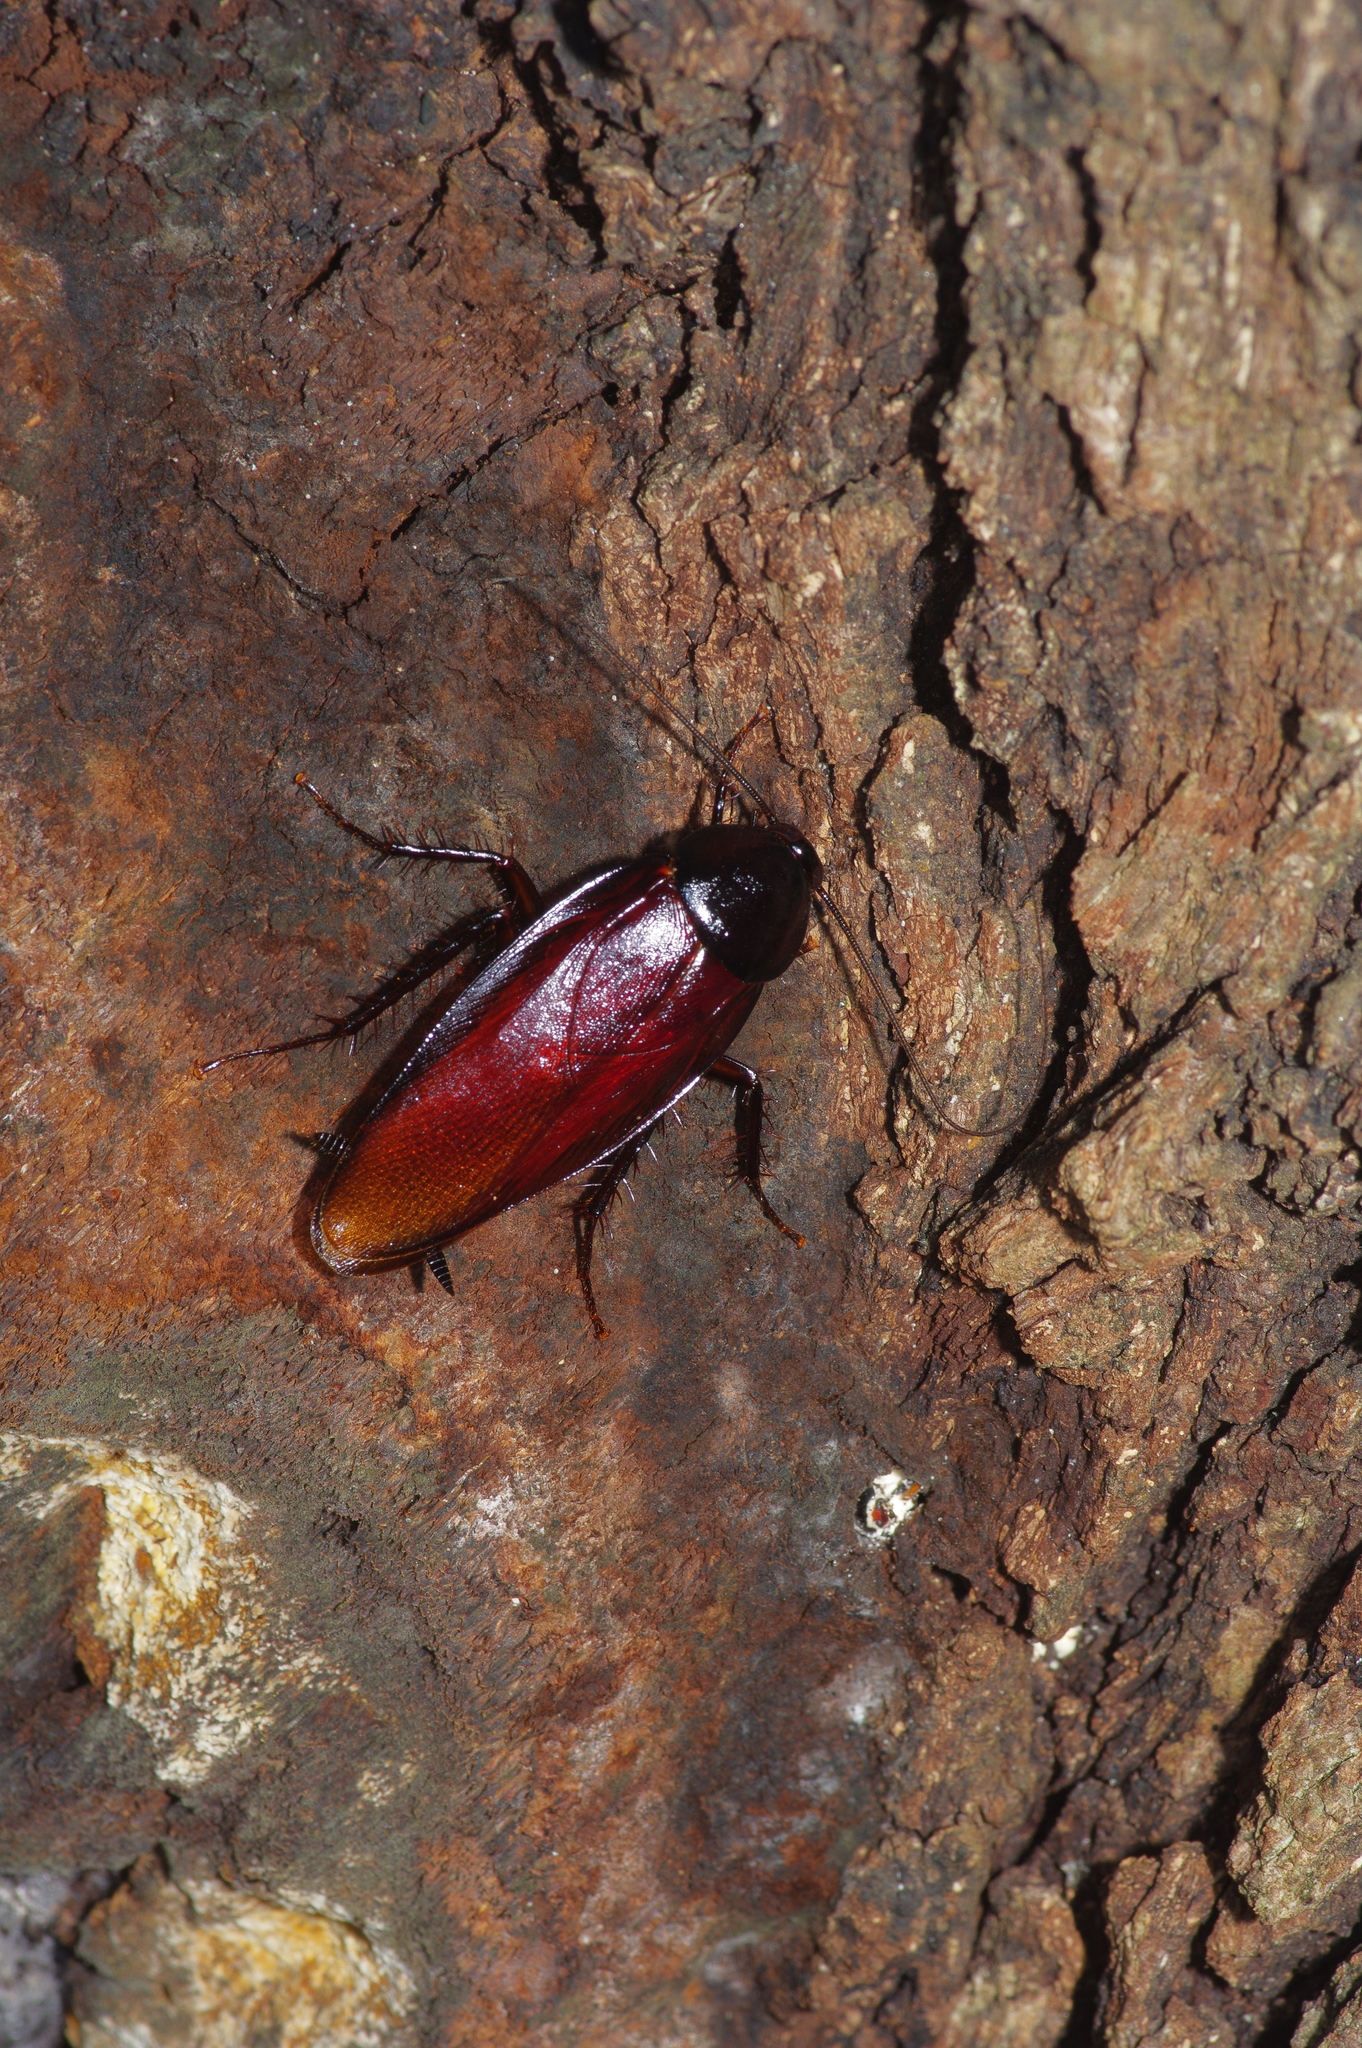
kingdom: Animalia
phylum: Arthropoda
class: Insecta
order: Blattodea
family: Blattidae
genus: Periplaneta
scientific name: Periplaneta fuliginosa
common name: Smokeybrown cockroad
